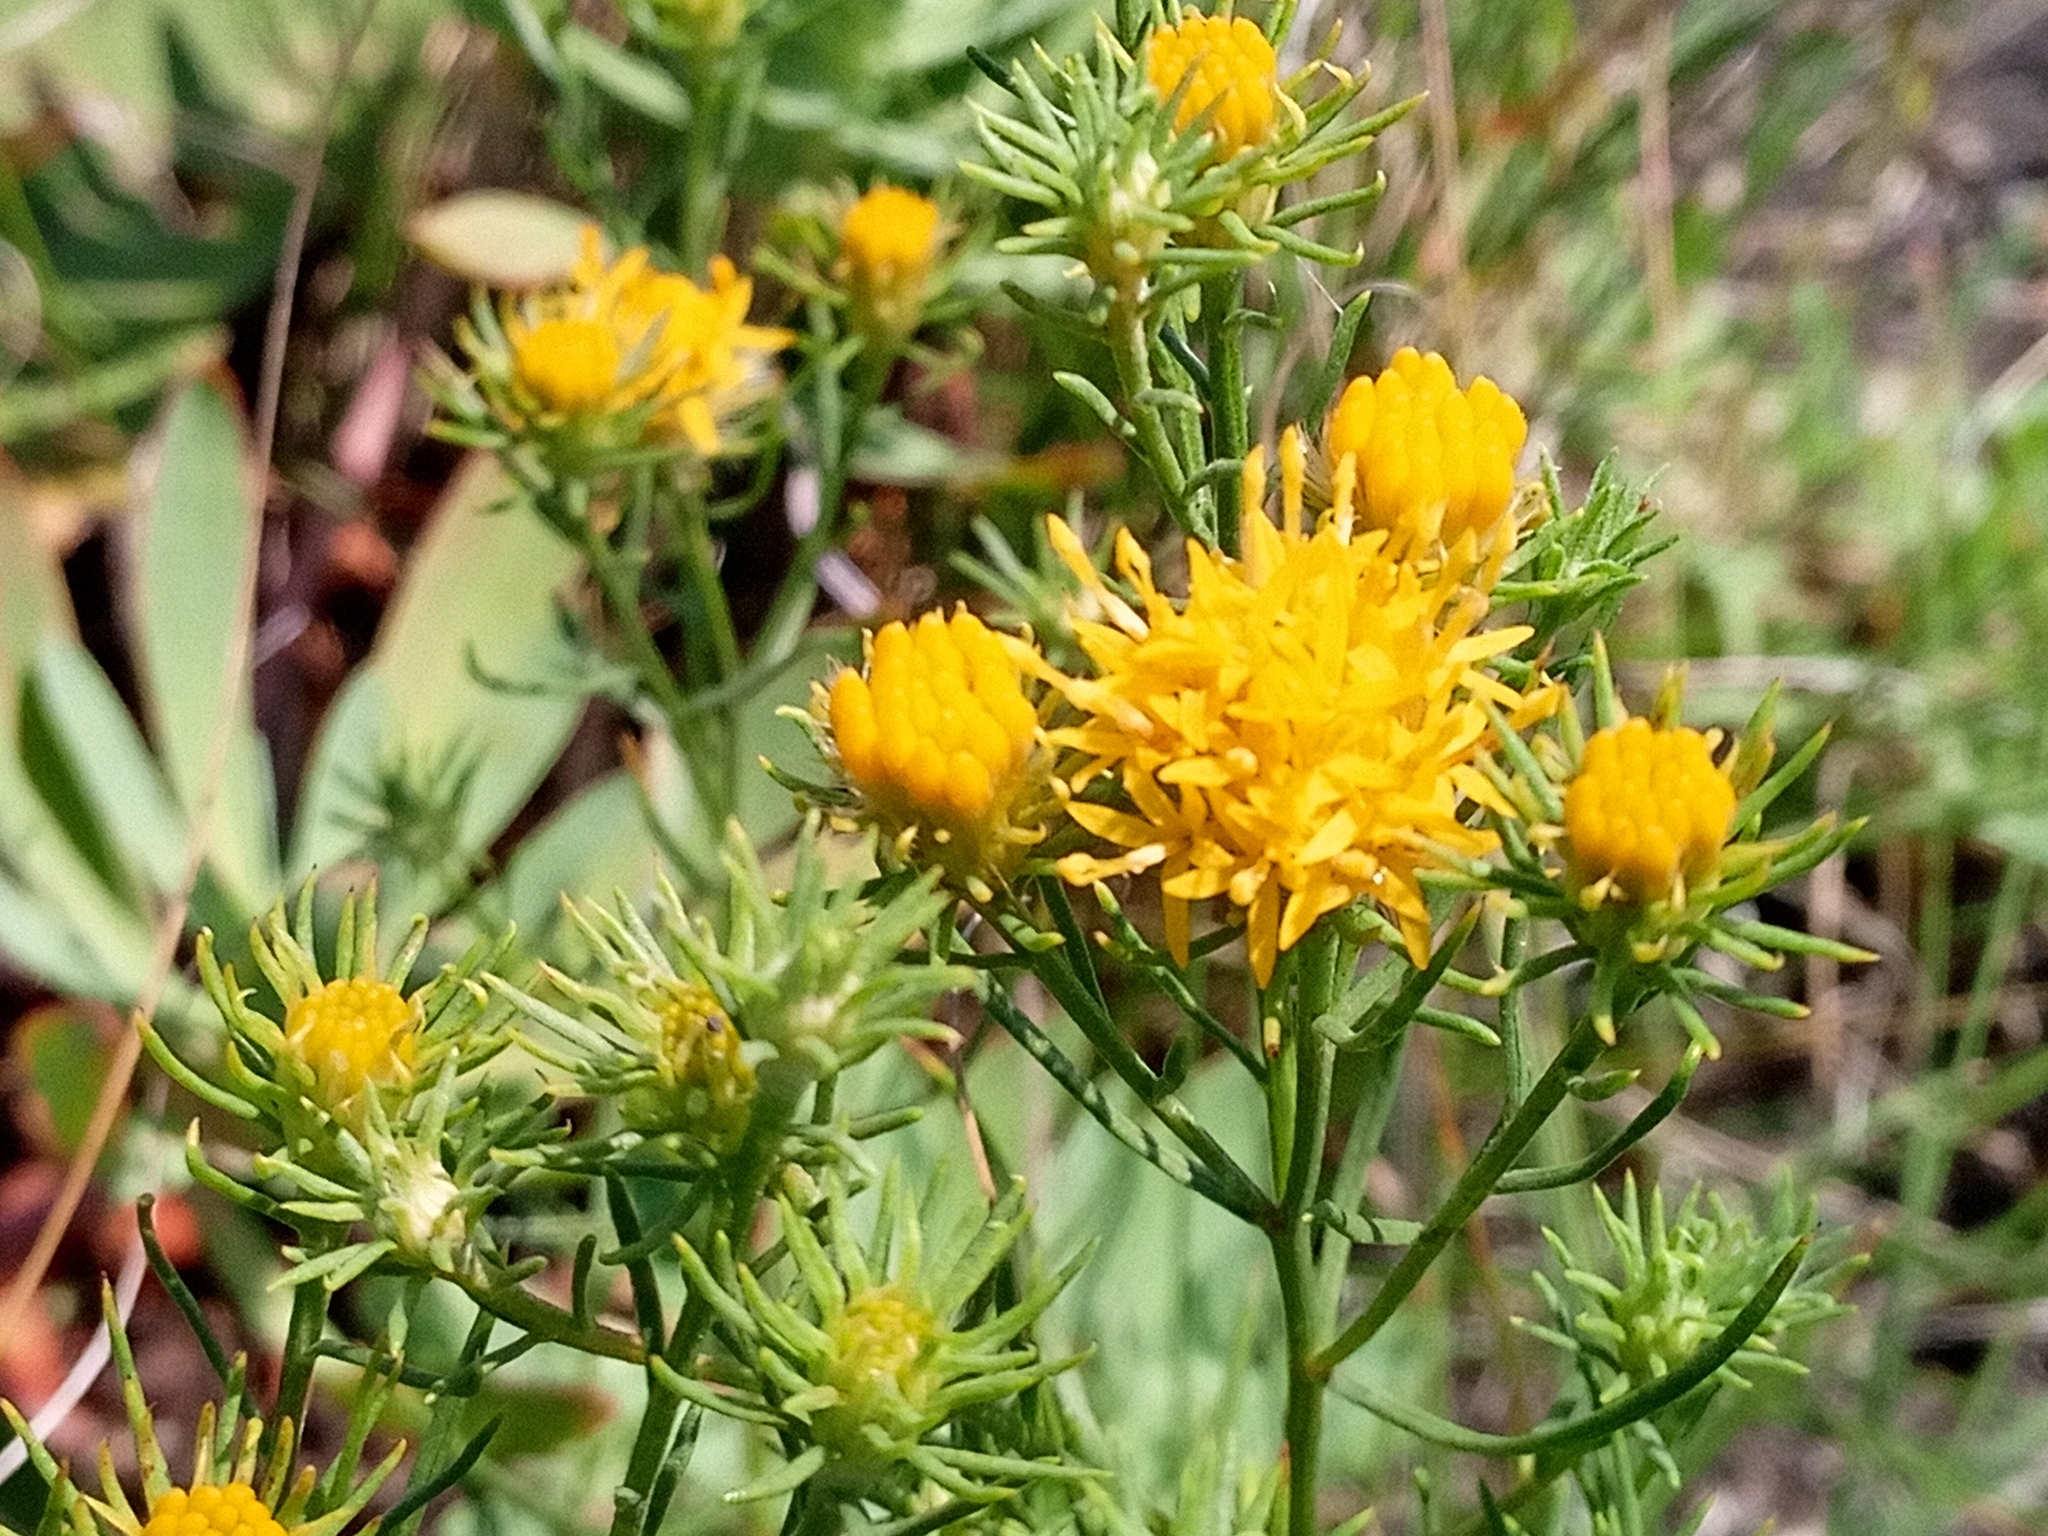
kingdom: Plantae
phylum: Tracheophyta
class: Magnoliopsida
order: Asterales
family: Asteraceae
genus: Galatella
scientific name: Galatella linosyris
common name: Goldilocks aster
